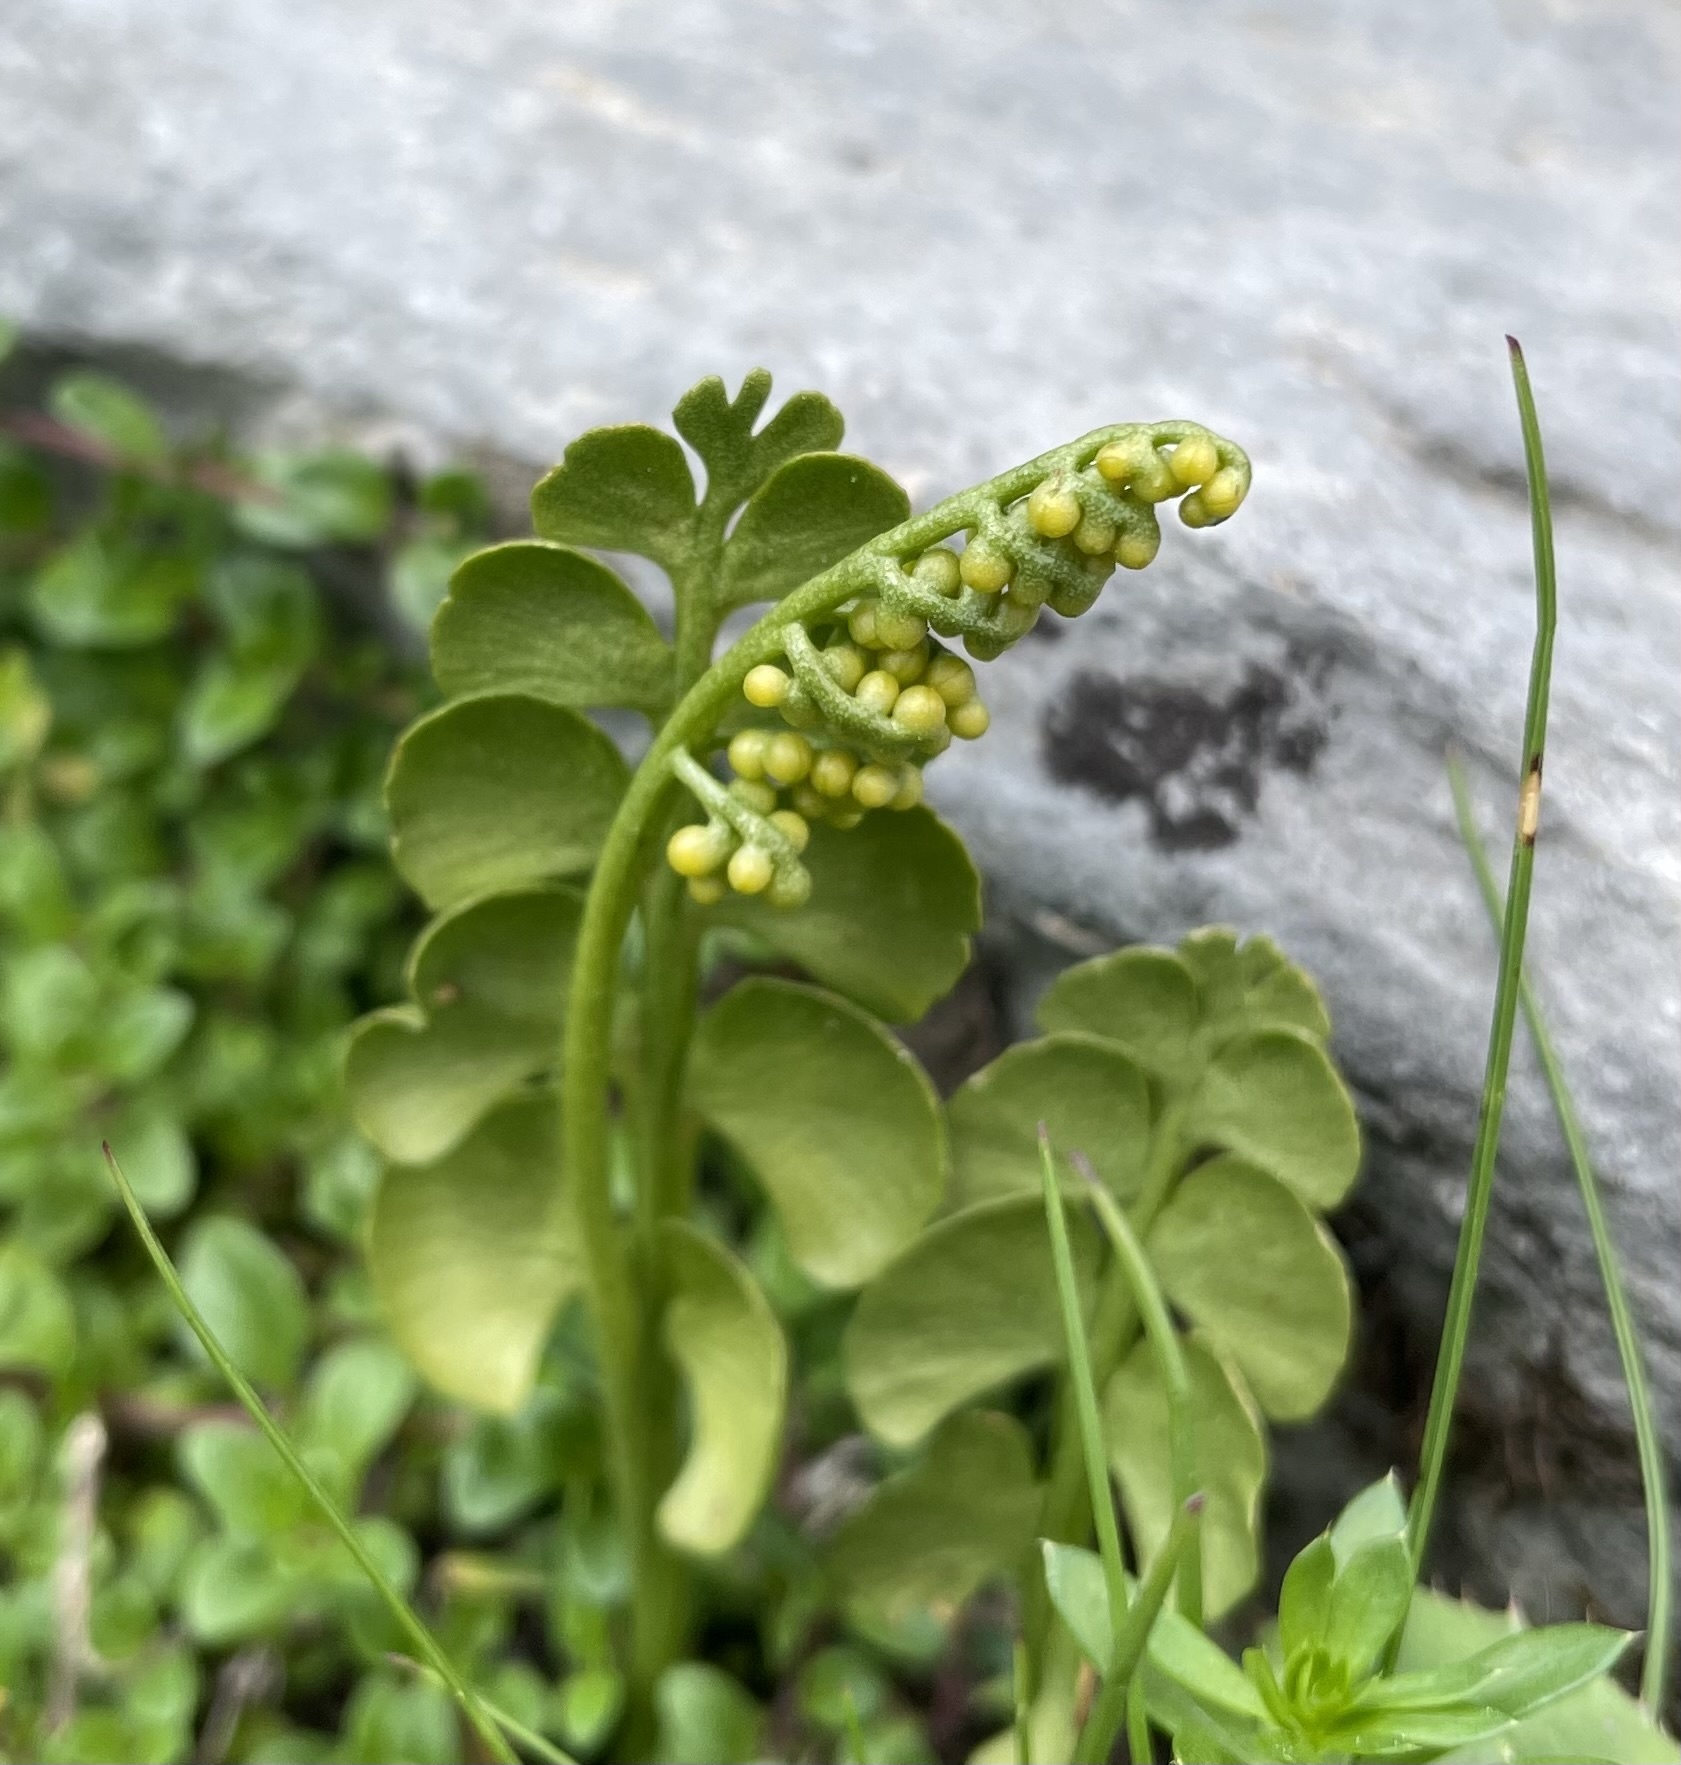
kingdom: Plantae
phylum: Tracheophyta
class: Polypodiopsida
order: Ophioglossales
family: Ophioglossaceae
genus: Botrychium
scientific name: Botrychium lunaria
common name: Moonwort
